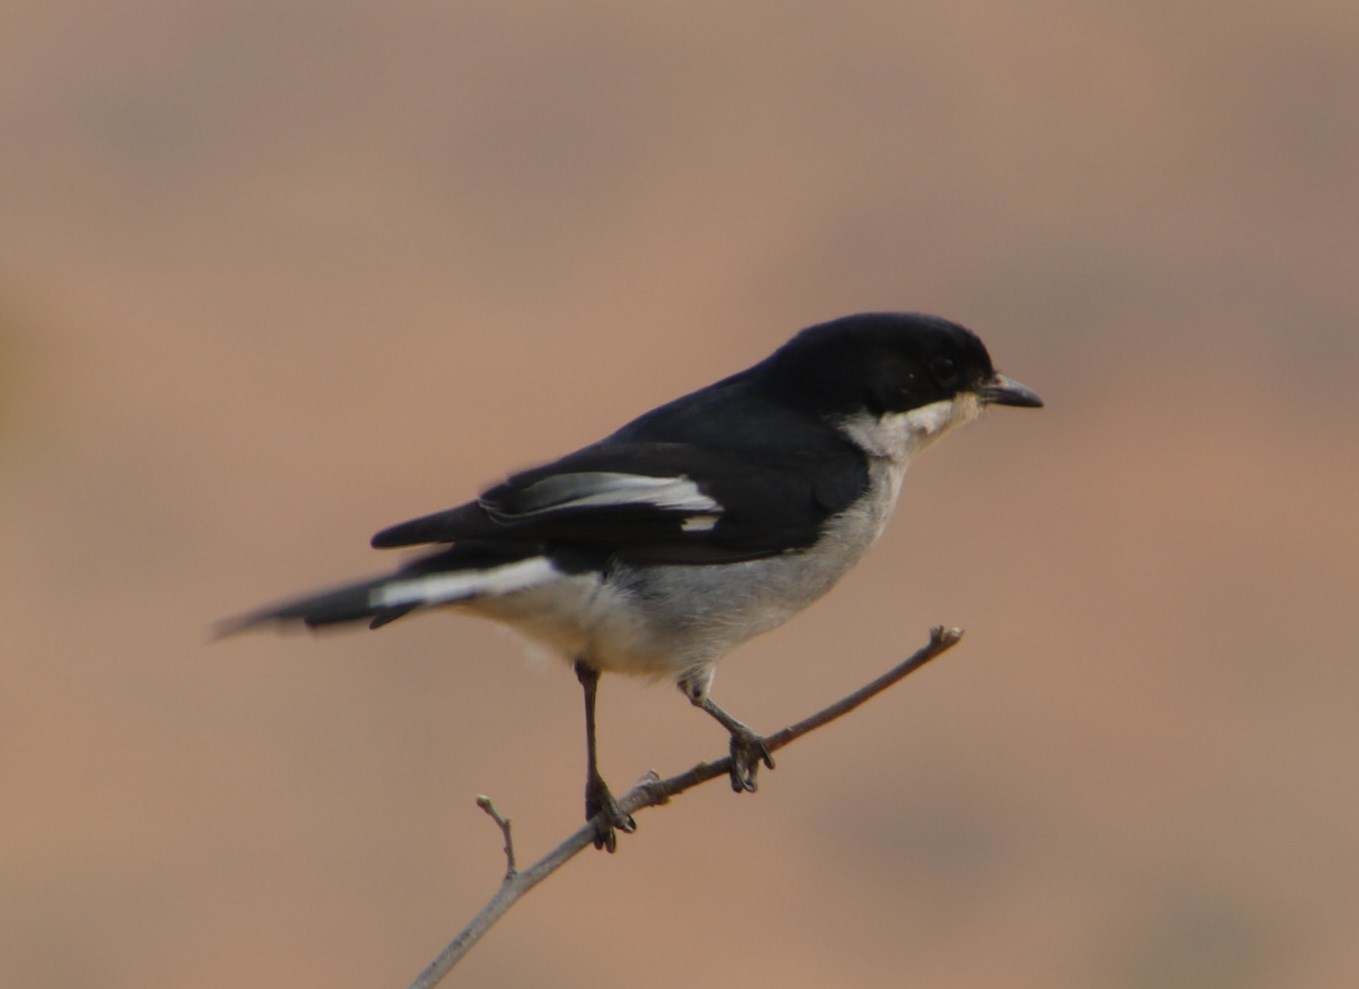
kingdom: Animalia
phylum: Chordata
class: Aves
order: Passeriformes
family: Muscicapidae
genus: Sigelus
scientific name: Sigelus silens
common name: Fiscal flycatcher
